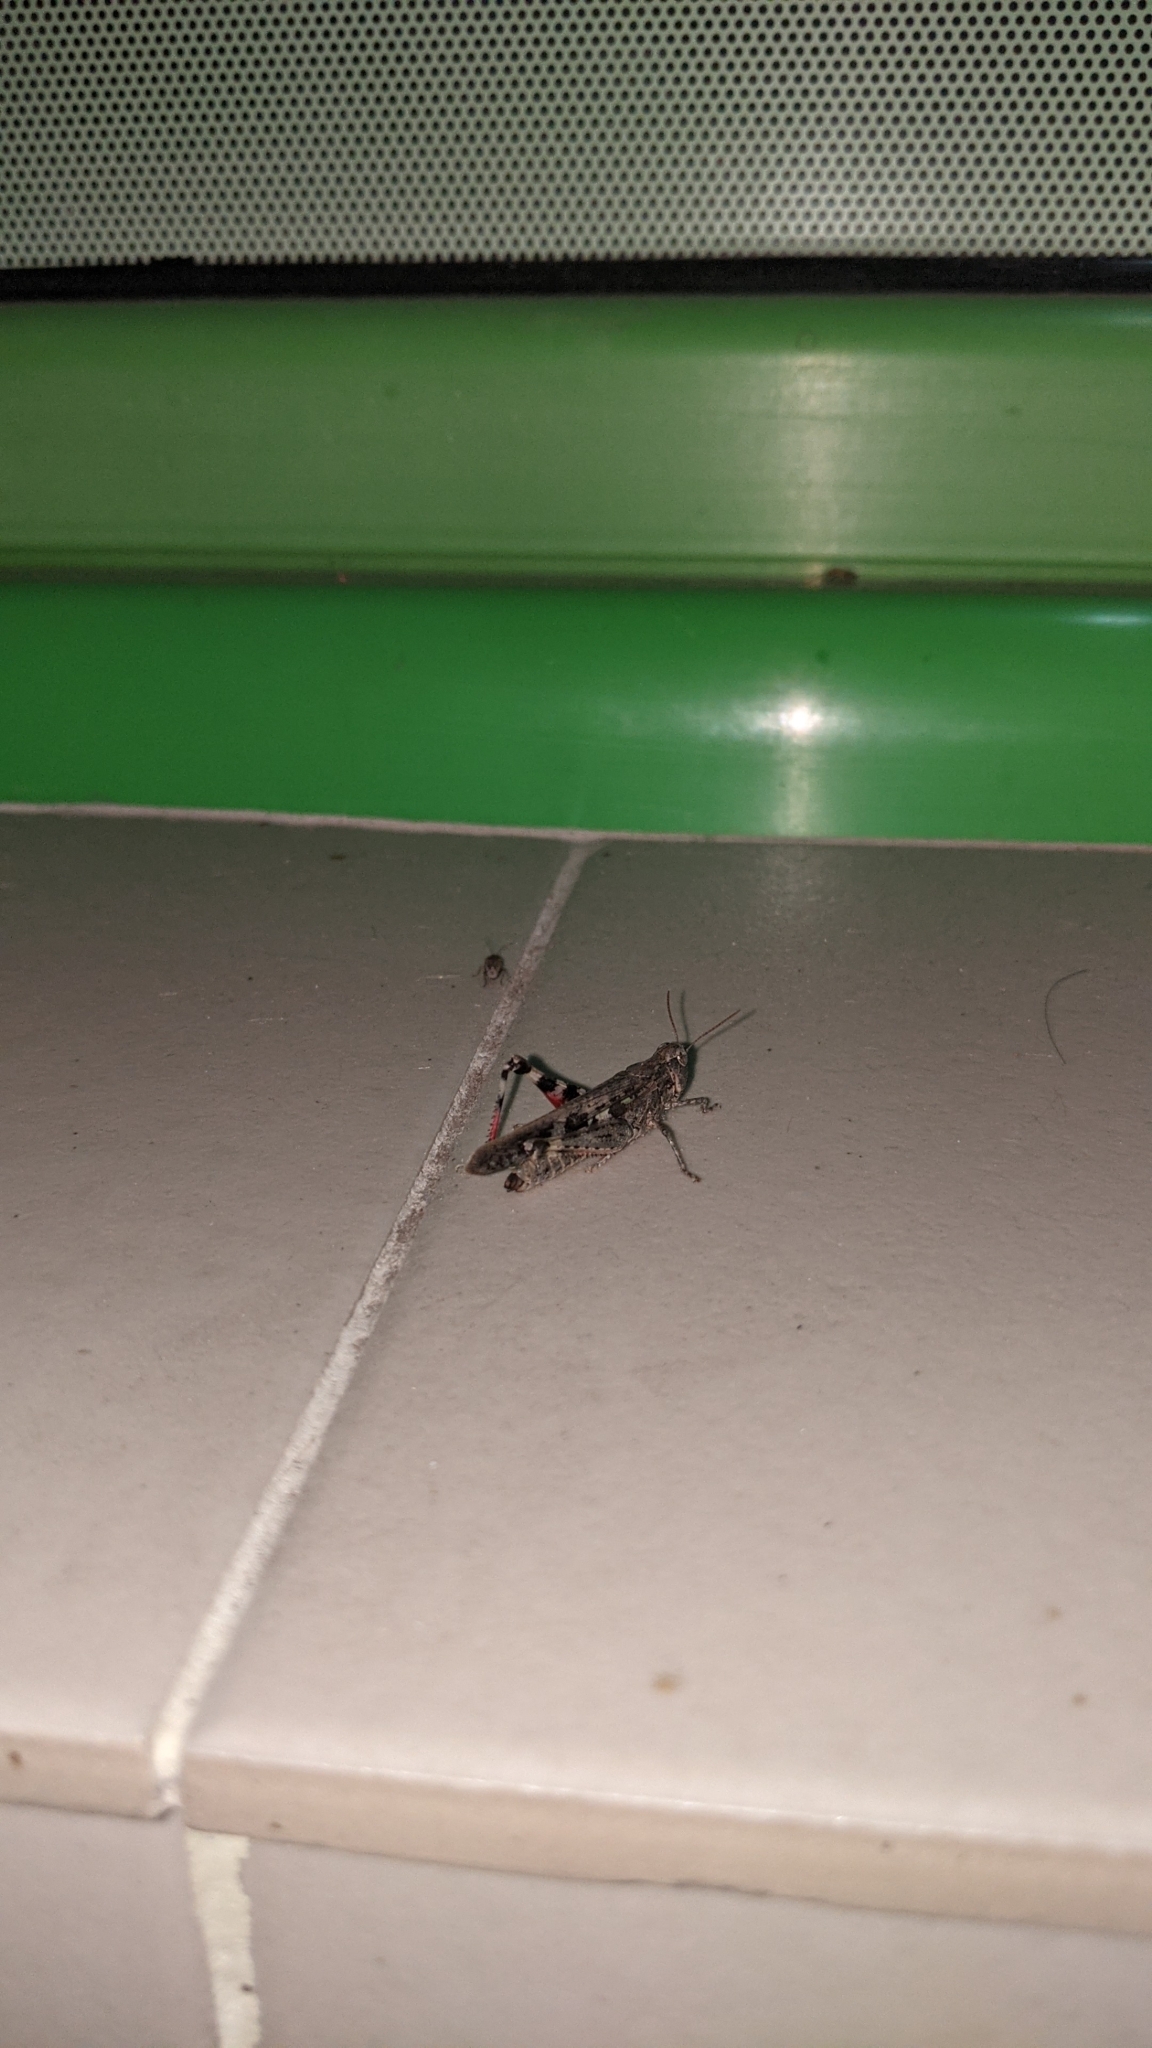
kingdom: Animalia
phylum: Arthropoda
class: Insecta
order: Orthoptera
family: Acrididae
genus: Aiolopus
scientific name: Aiolopus thalassinus
